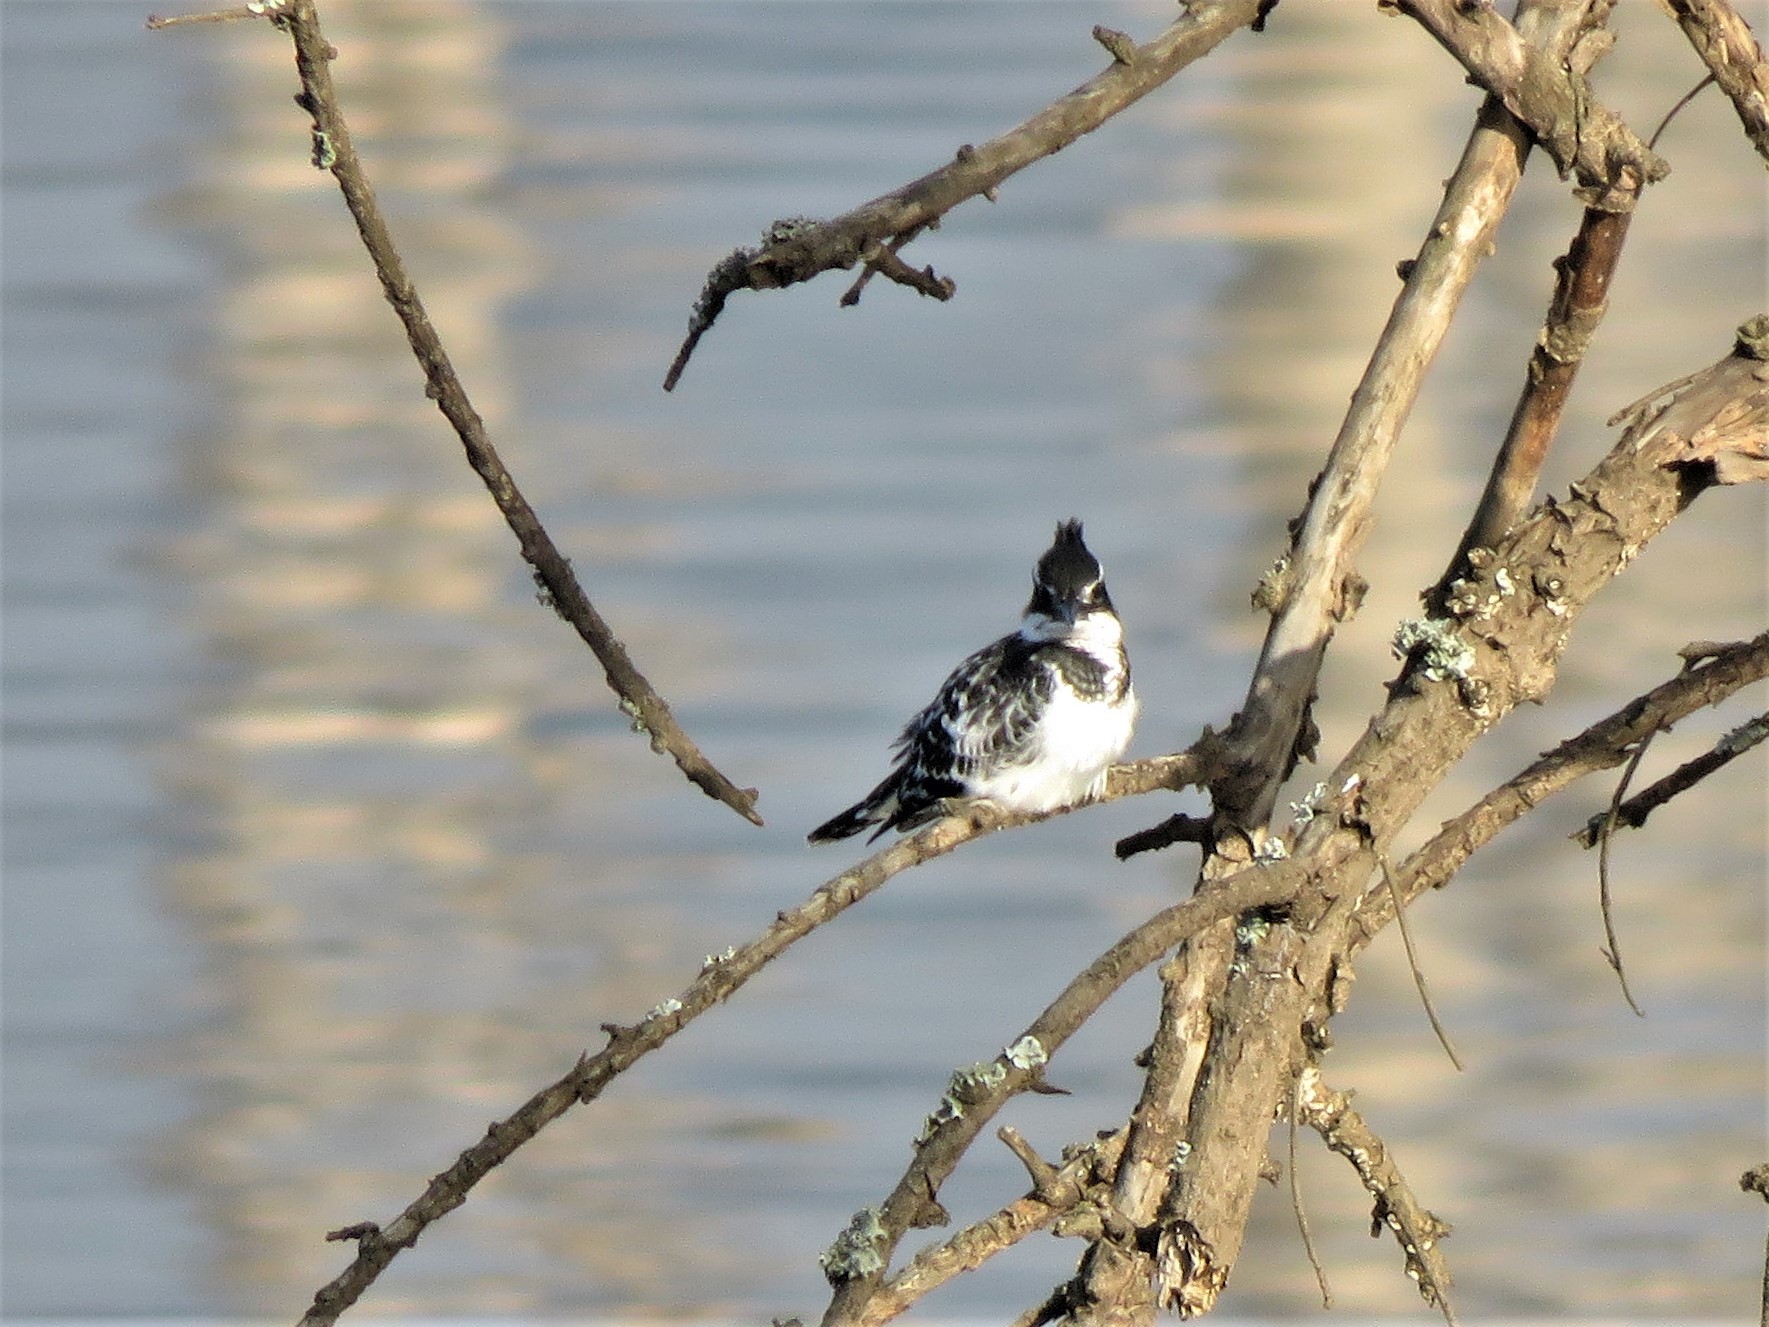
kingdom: Animalia
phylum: Chordata
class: Aves
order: Coraciiformes
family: Alcedinidae
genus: Ceryle
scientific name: Ceryle rudis
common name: Pied kingfisher
